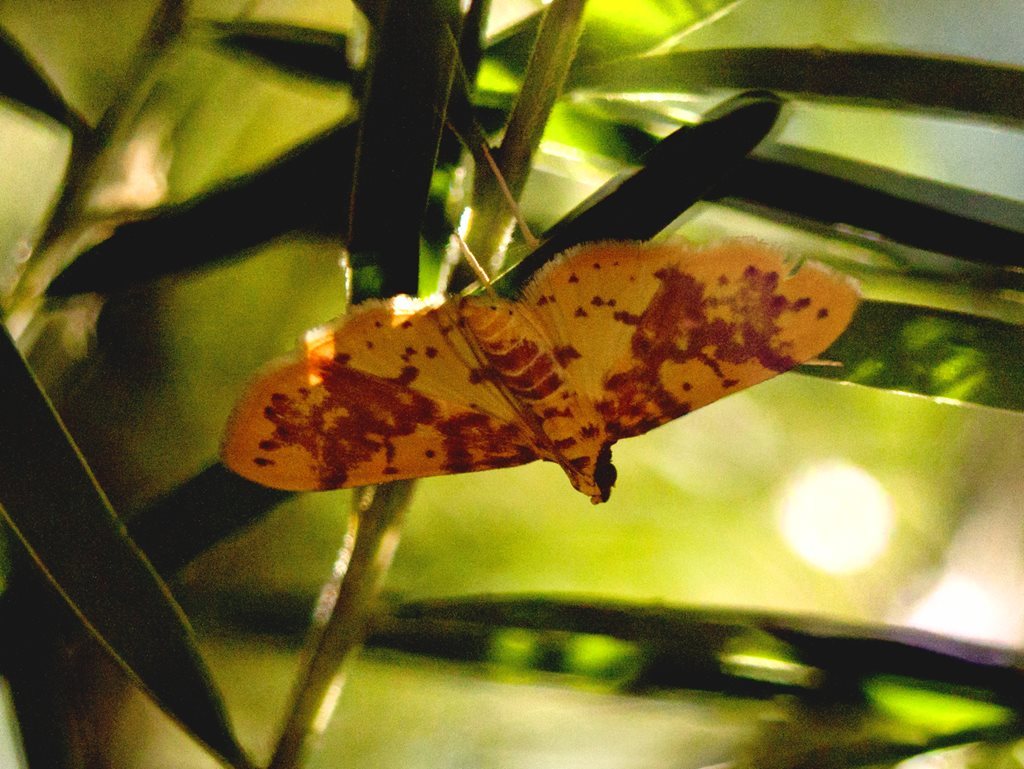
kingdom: Animalia
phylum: Arthropoda
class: Insecta
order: Lepidoptera
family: Crambidae
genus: Conogethes
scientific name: Conogethes haemactalis
